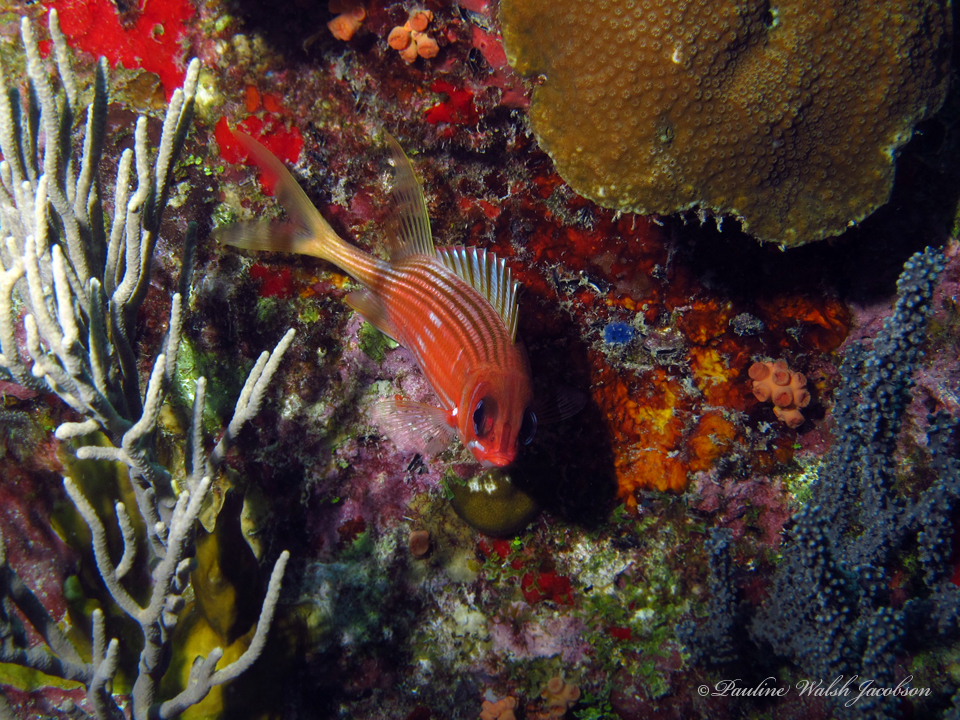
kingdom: Animalia
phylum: Chordata
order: Beryciformes
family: Holocentridae
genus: Holocentrus
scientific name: Holocentrus rufus
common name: Longspine squirrelfish
